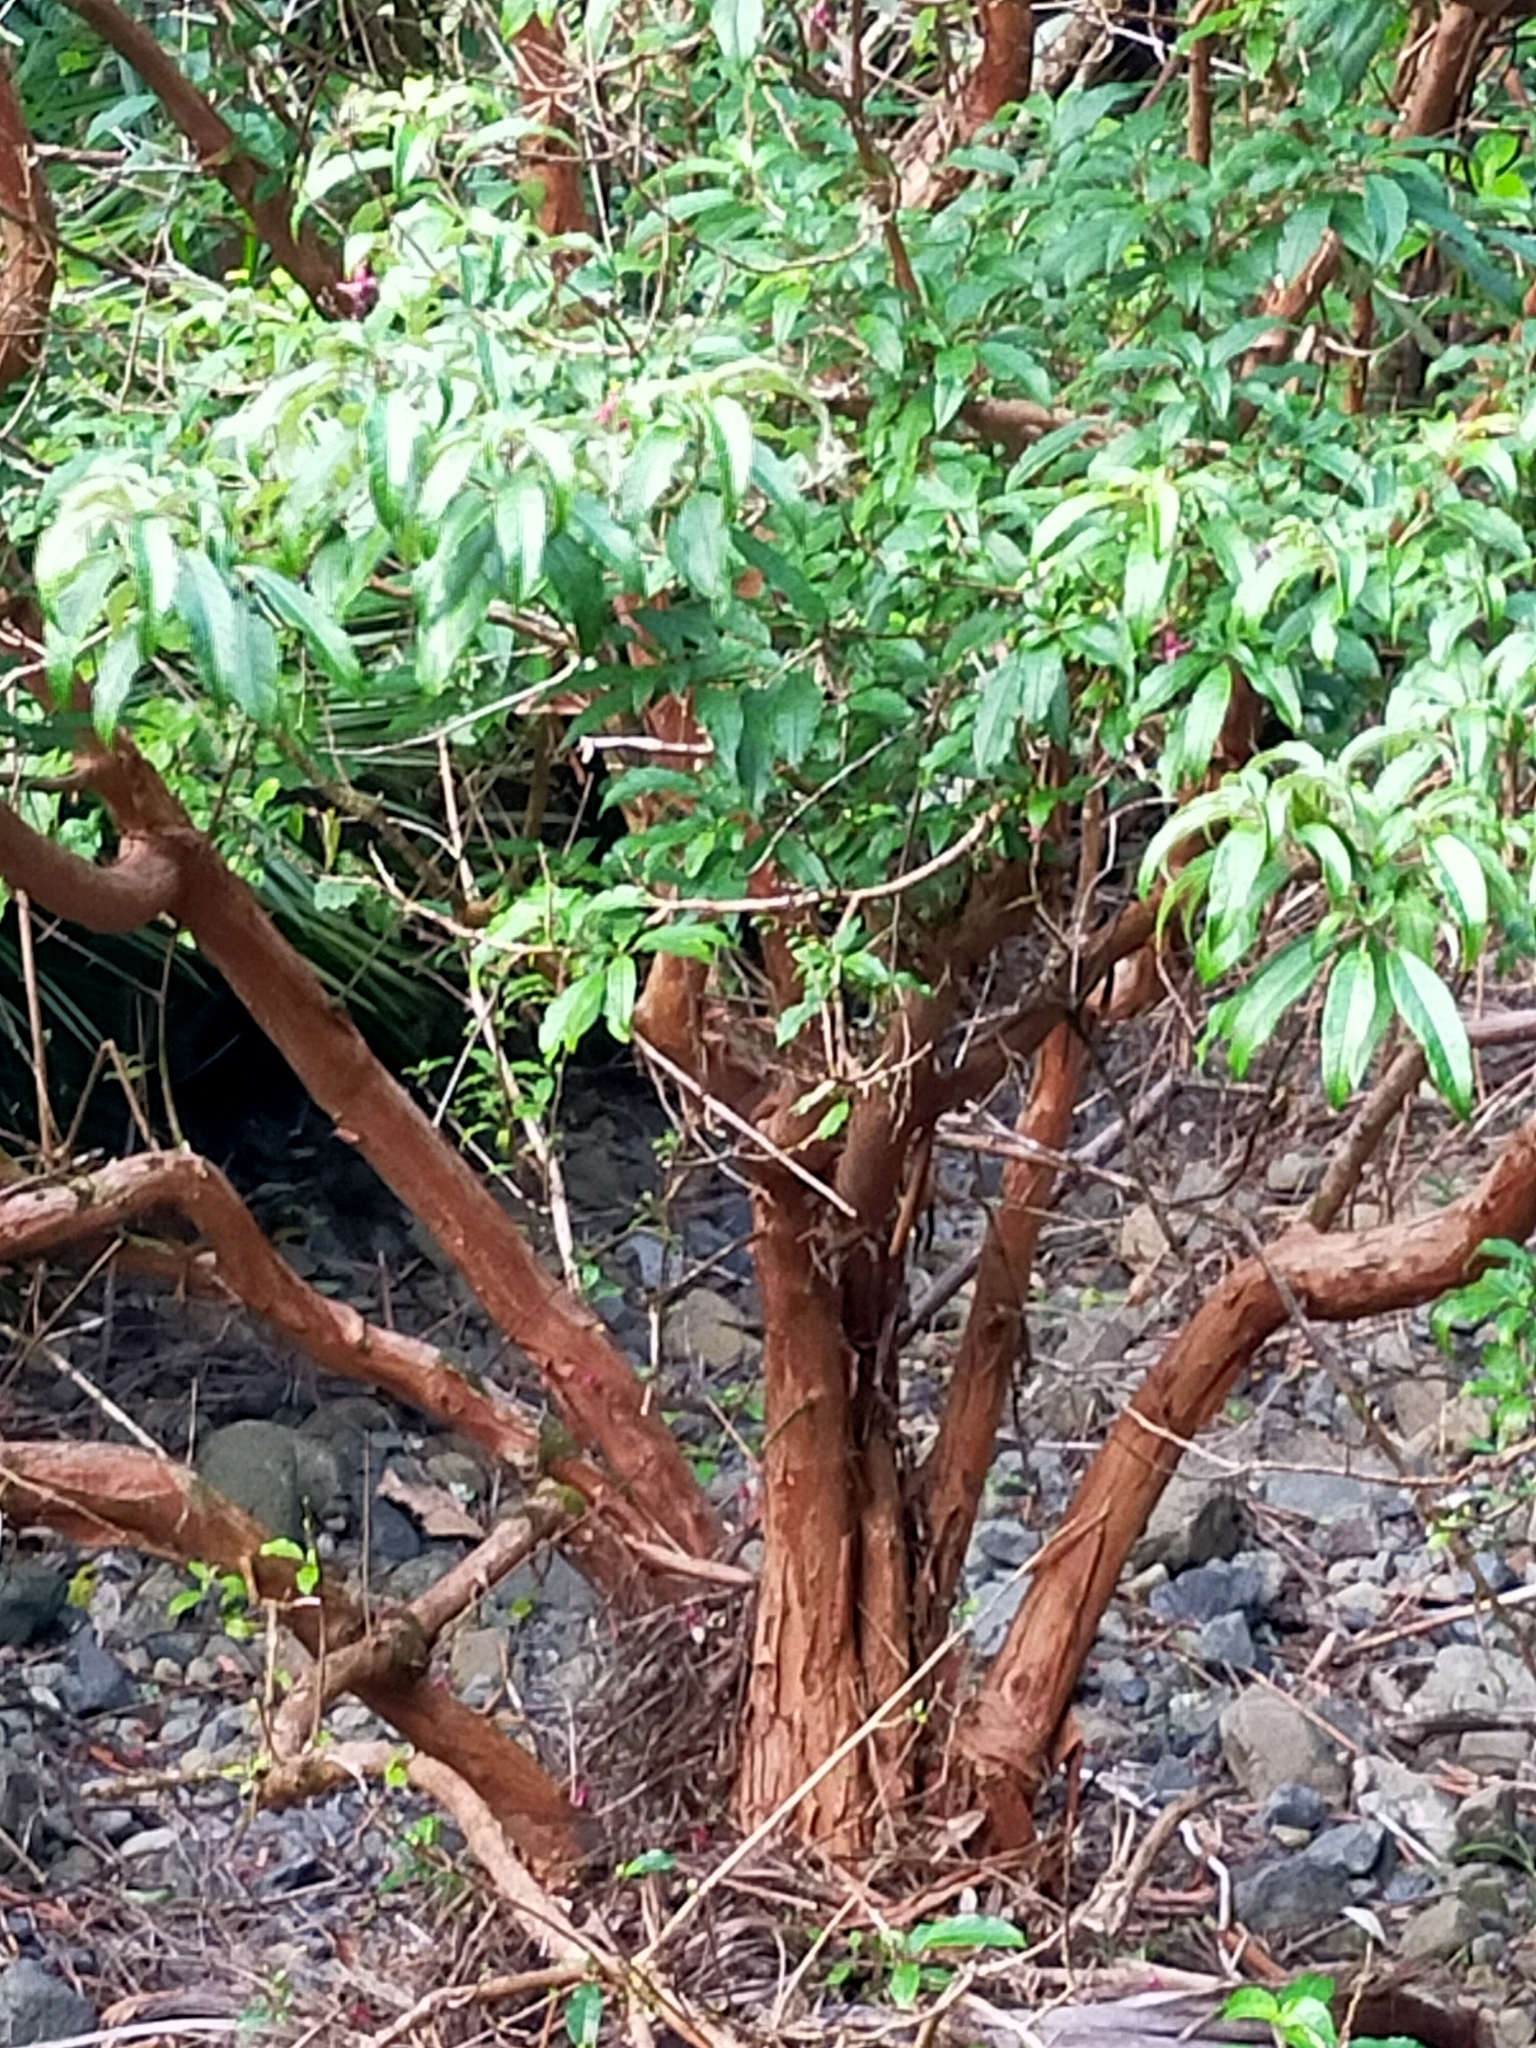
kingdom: Plantae
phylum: Tracheophyta
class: Magnoliopsida
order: Myrtales
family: Onagraceae
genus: Fuchsia
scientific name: Fuchsia excorticata
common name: Tree fuchsia
